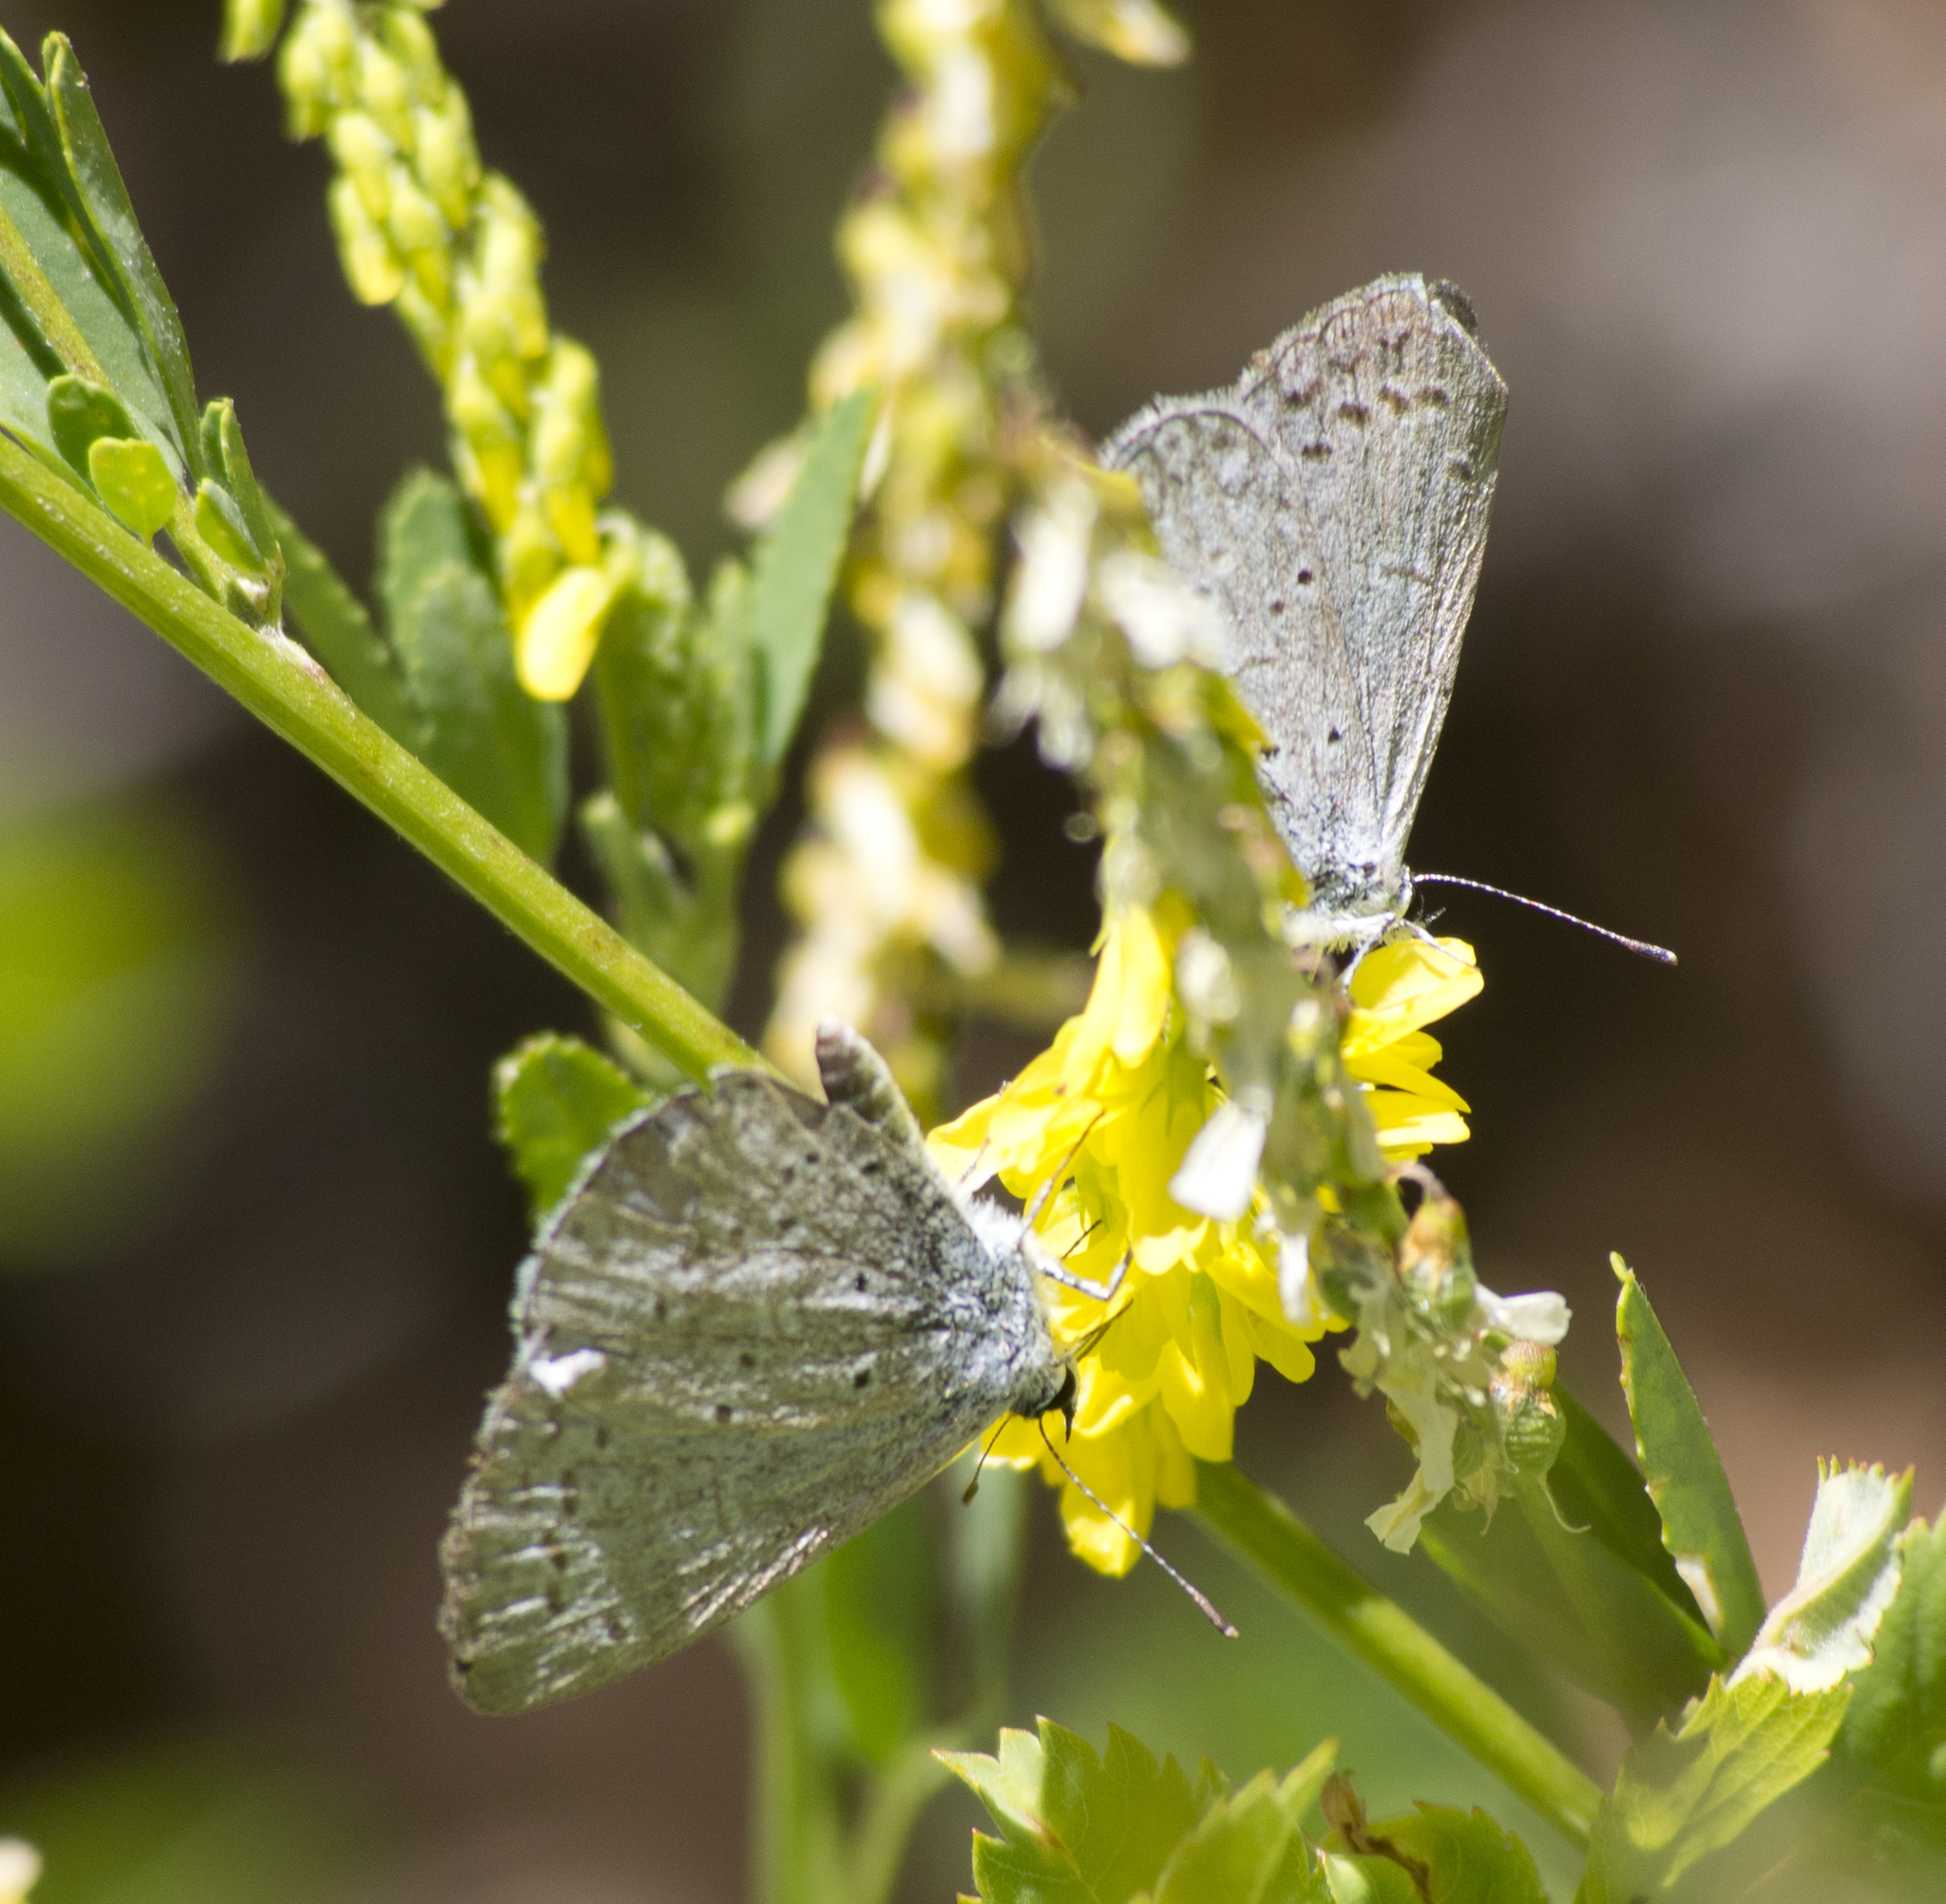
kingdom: Animalia
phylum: Arthropoda
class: Insecta
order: Lepidoptera
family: Lycaenidae
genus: Celastrina
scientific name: Celastrina argiolus
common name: Holly blue
